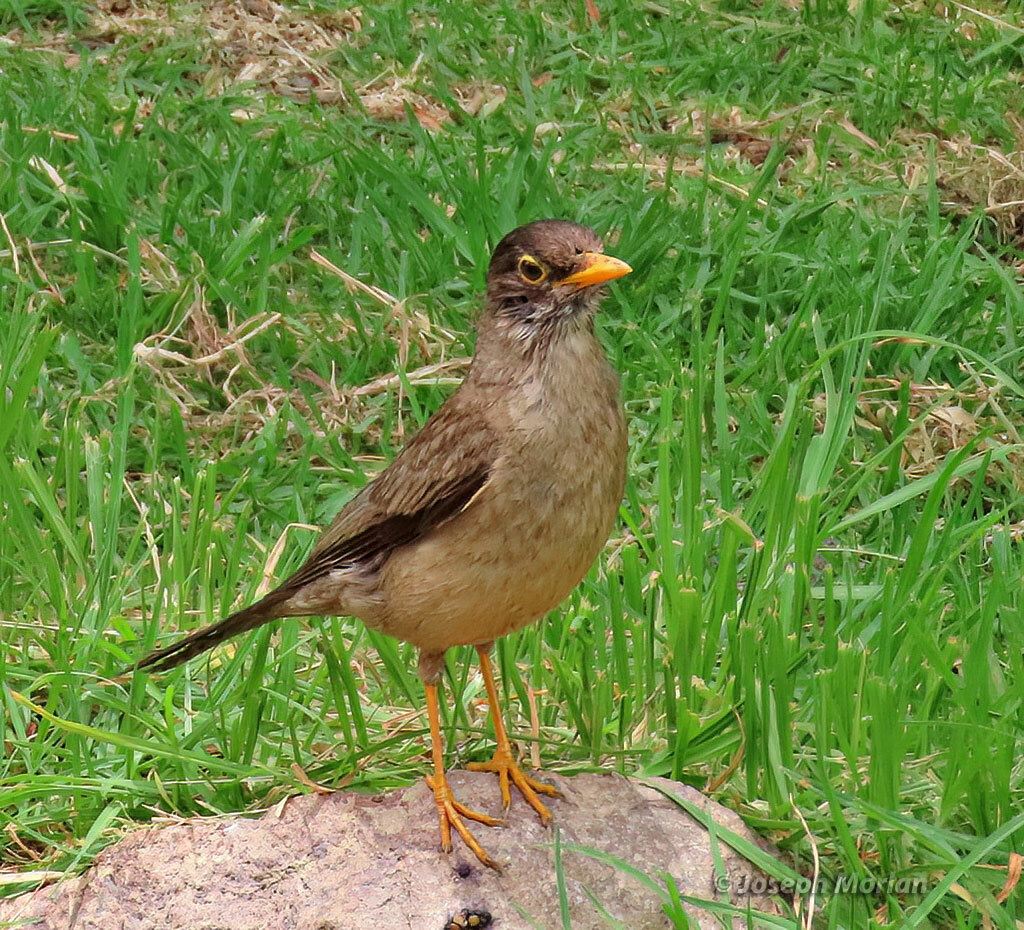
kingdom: Animalia
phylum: Chordata
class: Aves
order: Passeriformes
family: Turdidae
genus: Turdus
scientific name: Turdus falcklandii
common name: Austral thrush
